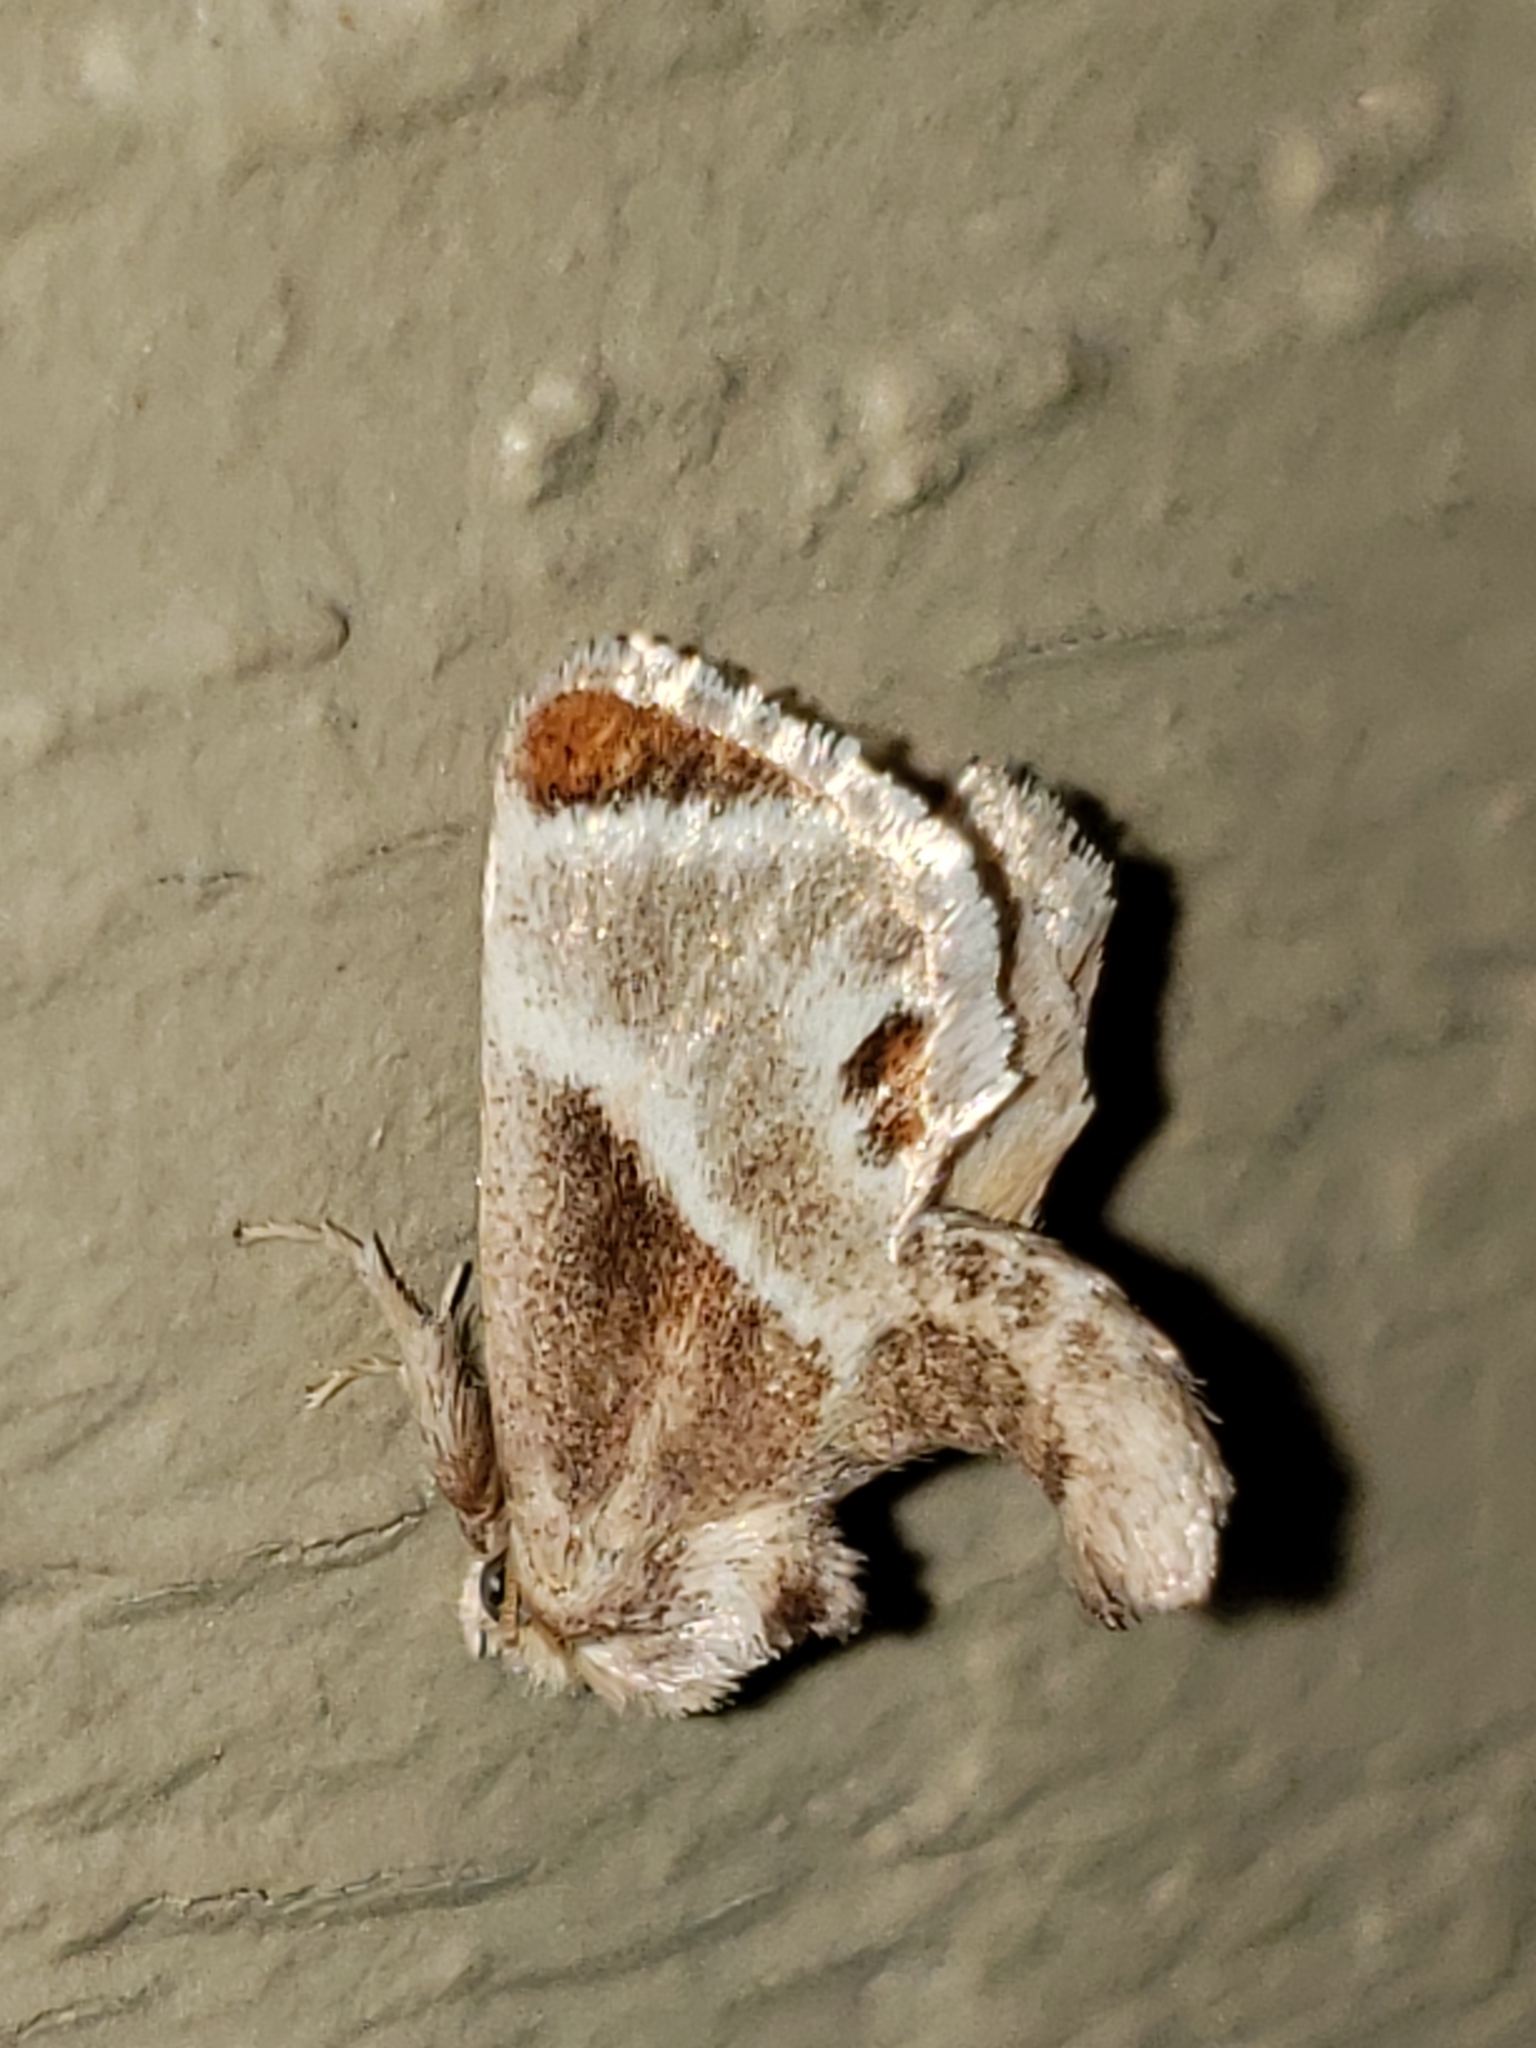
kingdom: Animalia
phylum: Arthropoda
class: Insecta
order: Lepidoptera
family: Limacodidae
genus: Apoda
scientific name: Apoda biguttata
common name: Shagreened slug moth
